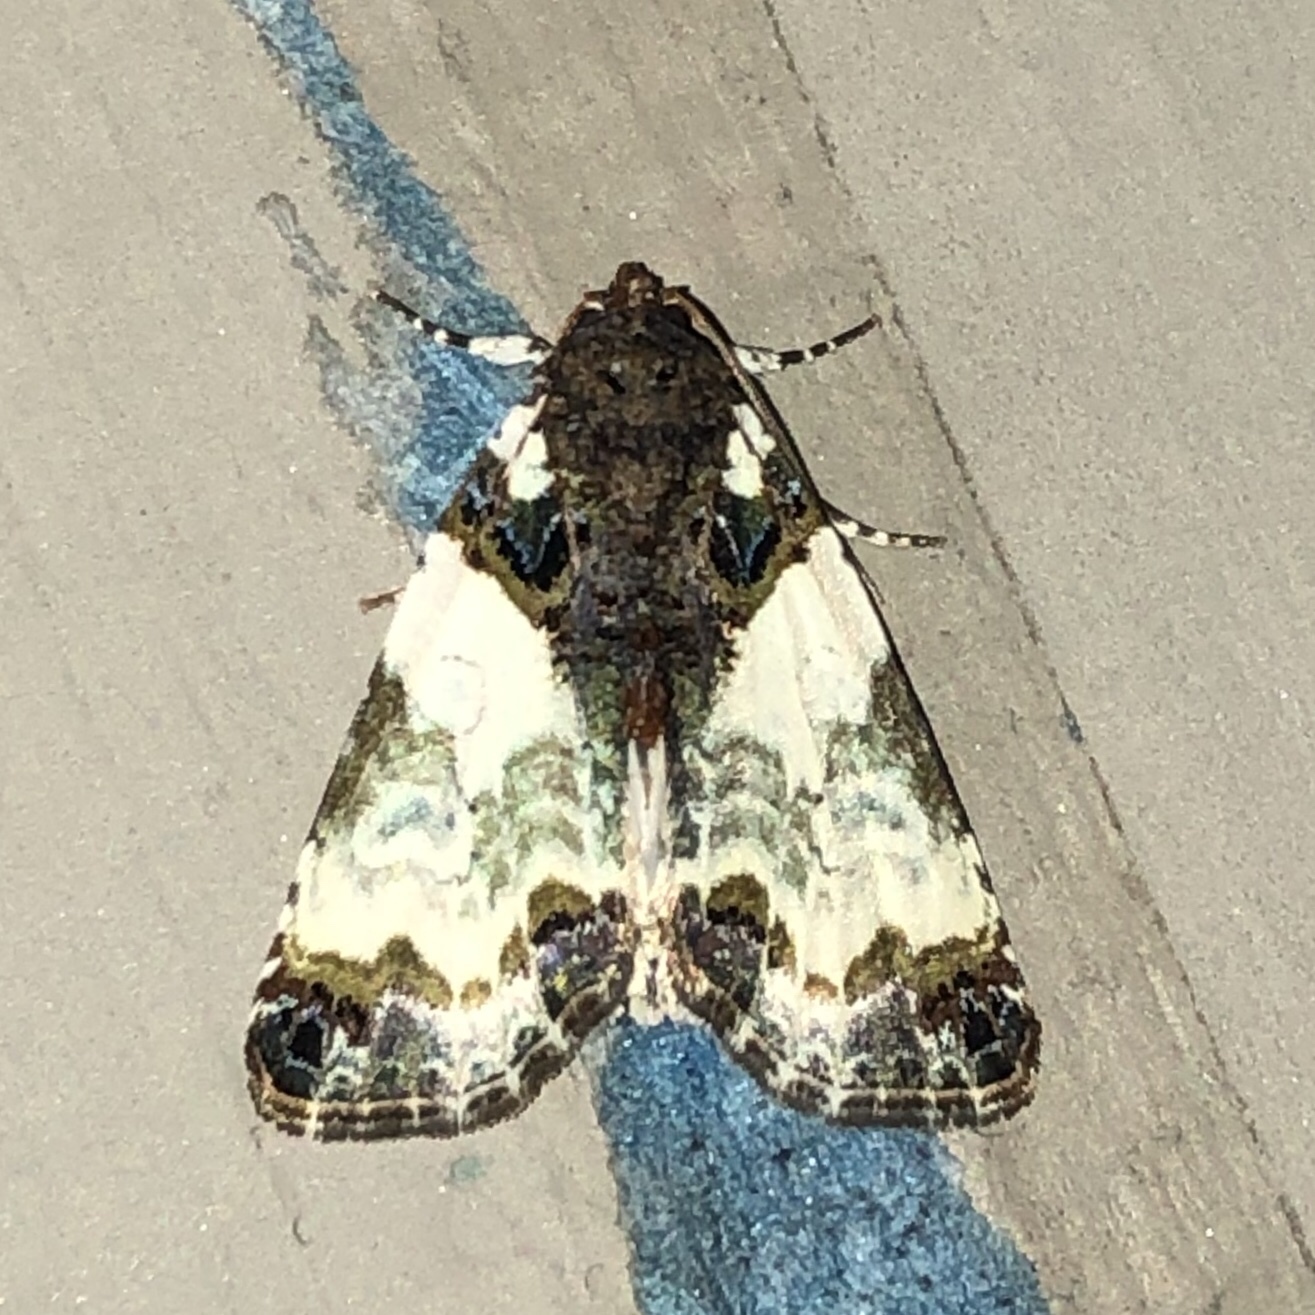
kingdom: Animalia
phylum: Arthropoda
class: Insecta
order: Lepidoptera
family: Noctuidae
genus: Cerma
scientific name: Cerma cerintha
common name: Tufted bird-dropping moth
